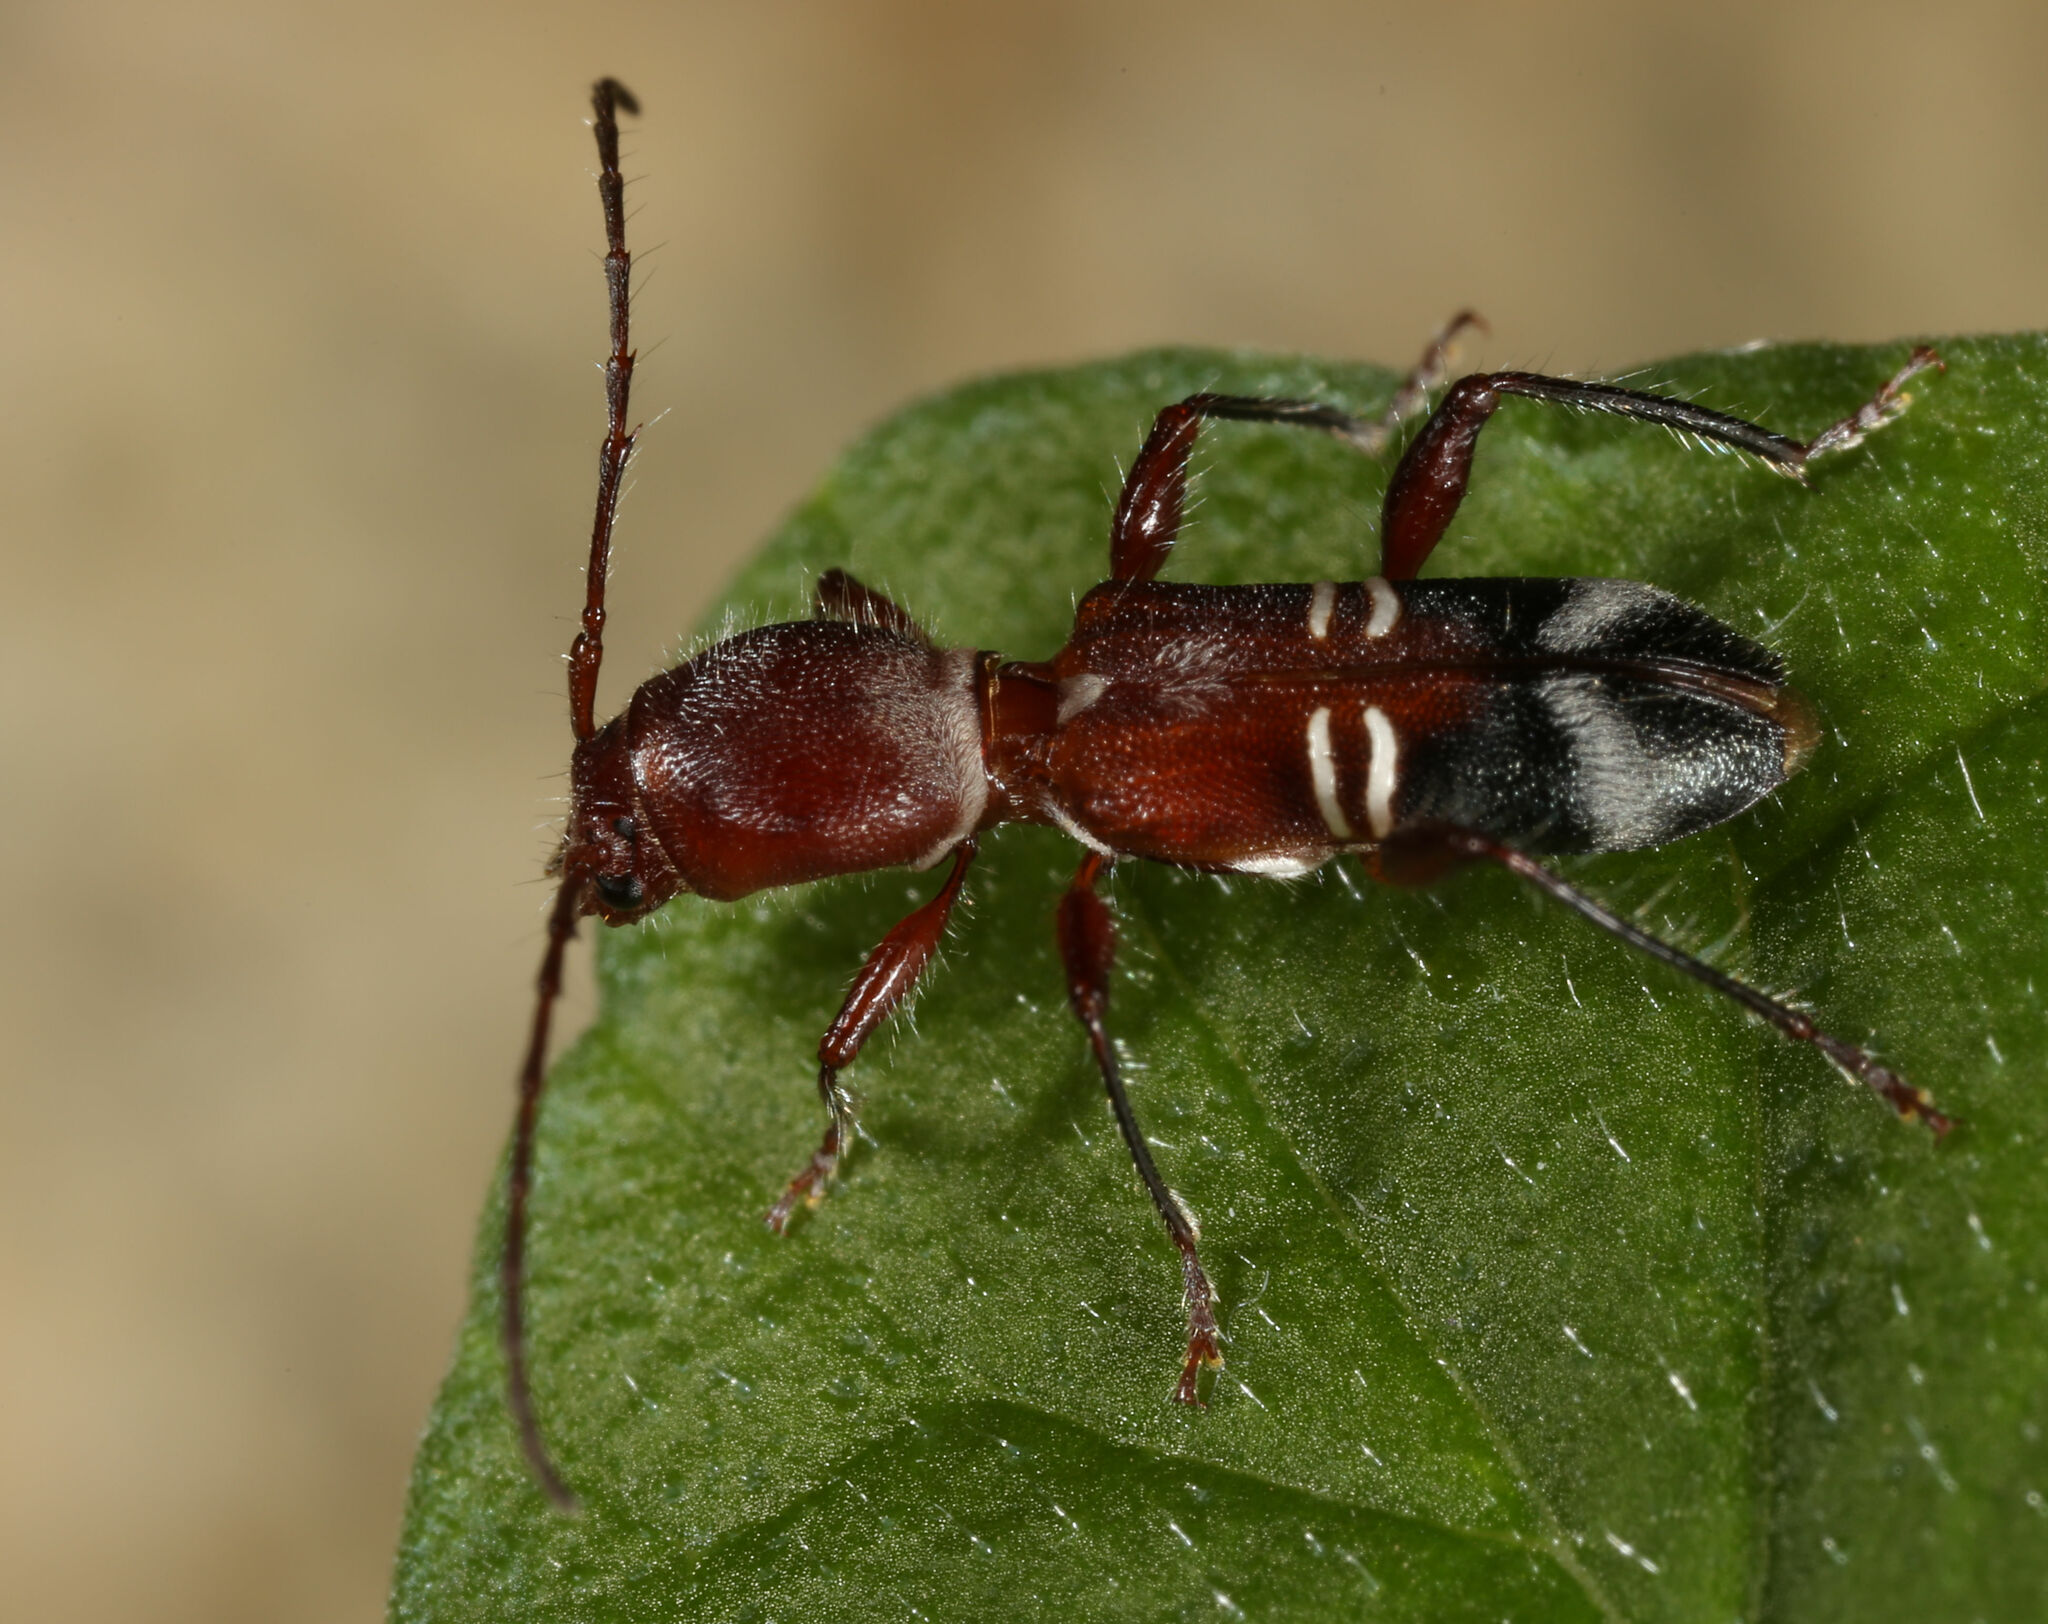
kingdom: Animalia
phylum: Arthropoda
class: Insecta
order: Coleoptera
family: Cerambycidae
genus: Euderces
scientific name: Euderces bicinctus
